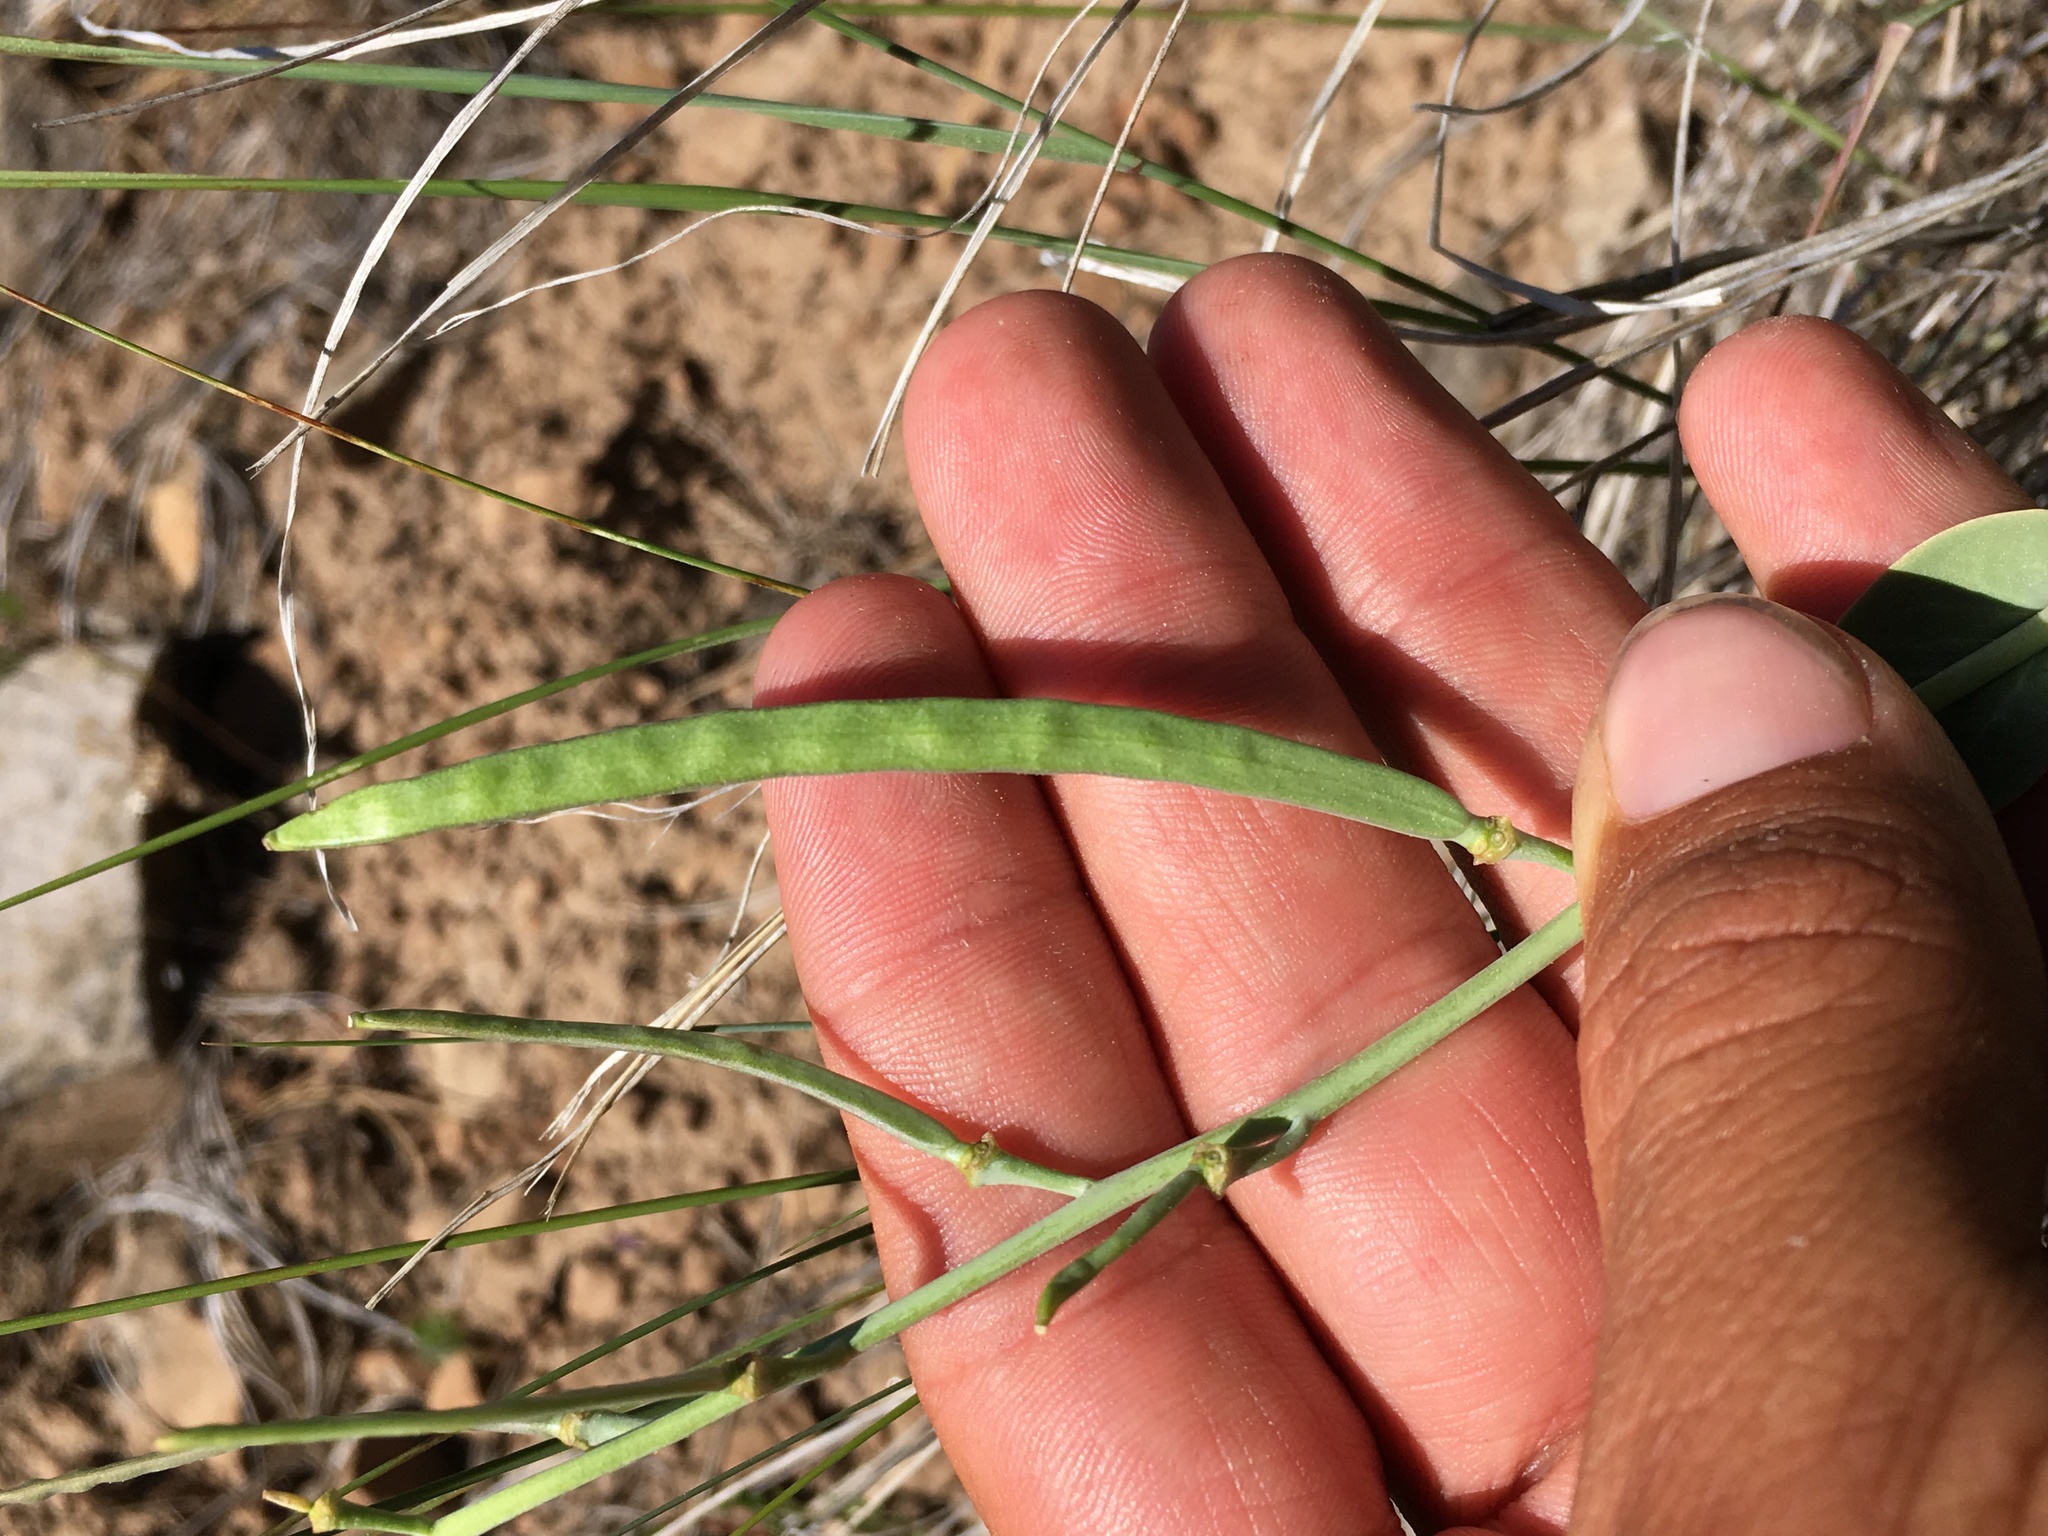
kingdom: Plantae
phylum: Tracheophyta
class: Magnoliopsida
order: Brassicales
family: Brassicaceae
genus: Streptanthus
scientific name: Streptanthus cordatus
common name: Heart-leaf jewel-flower
